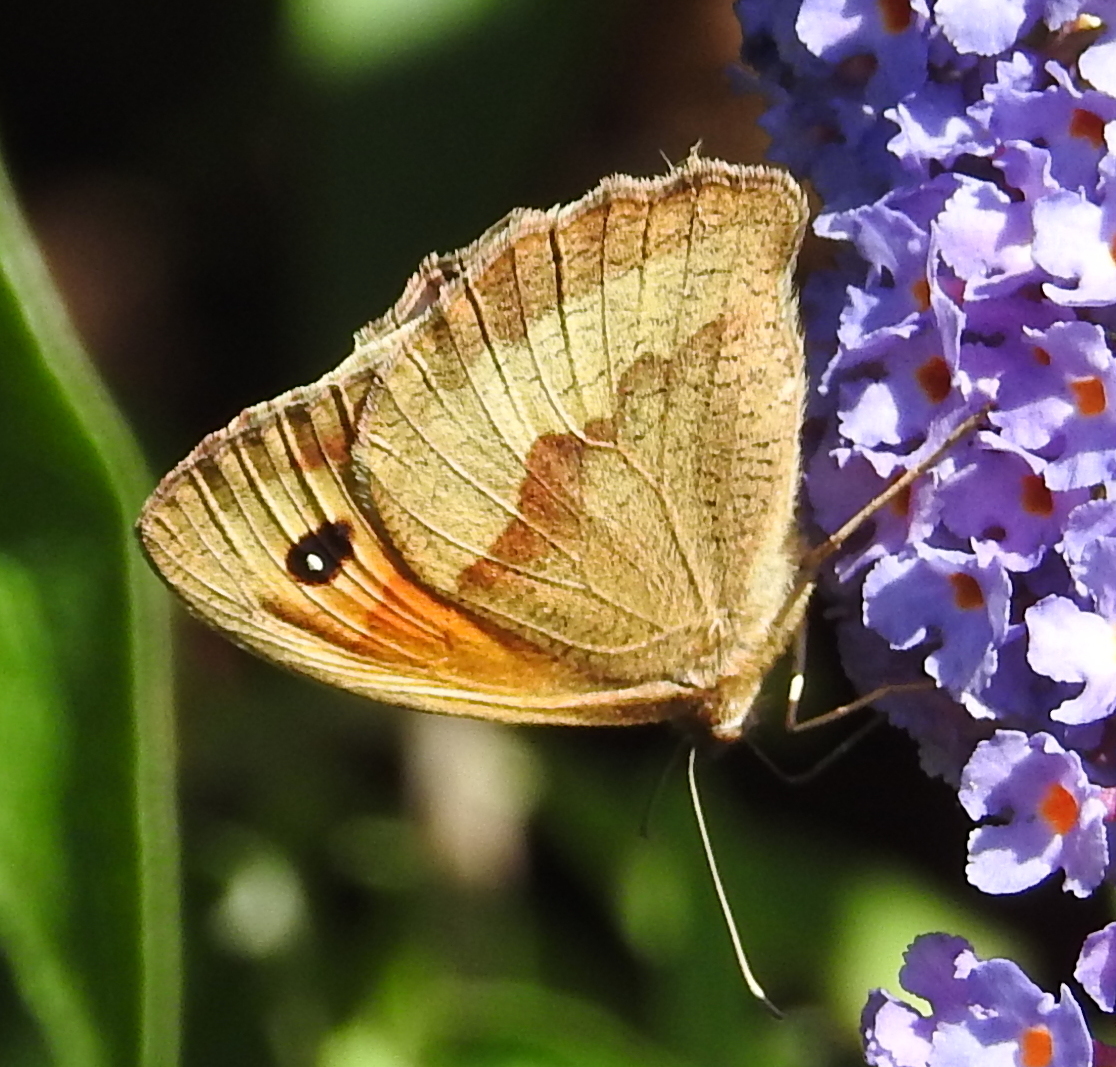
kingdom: Animalia
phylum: Arthropoda
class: Insecta
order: Lepidoptera
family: Nymphalidae
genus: Maniola
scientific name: Maniola jurtina
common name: Meadow brown
